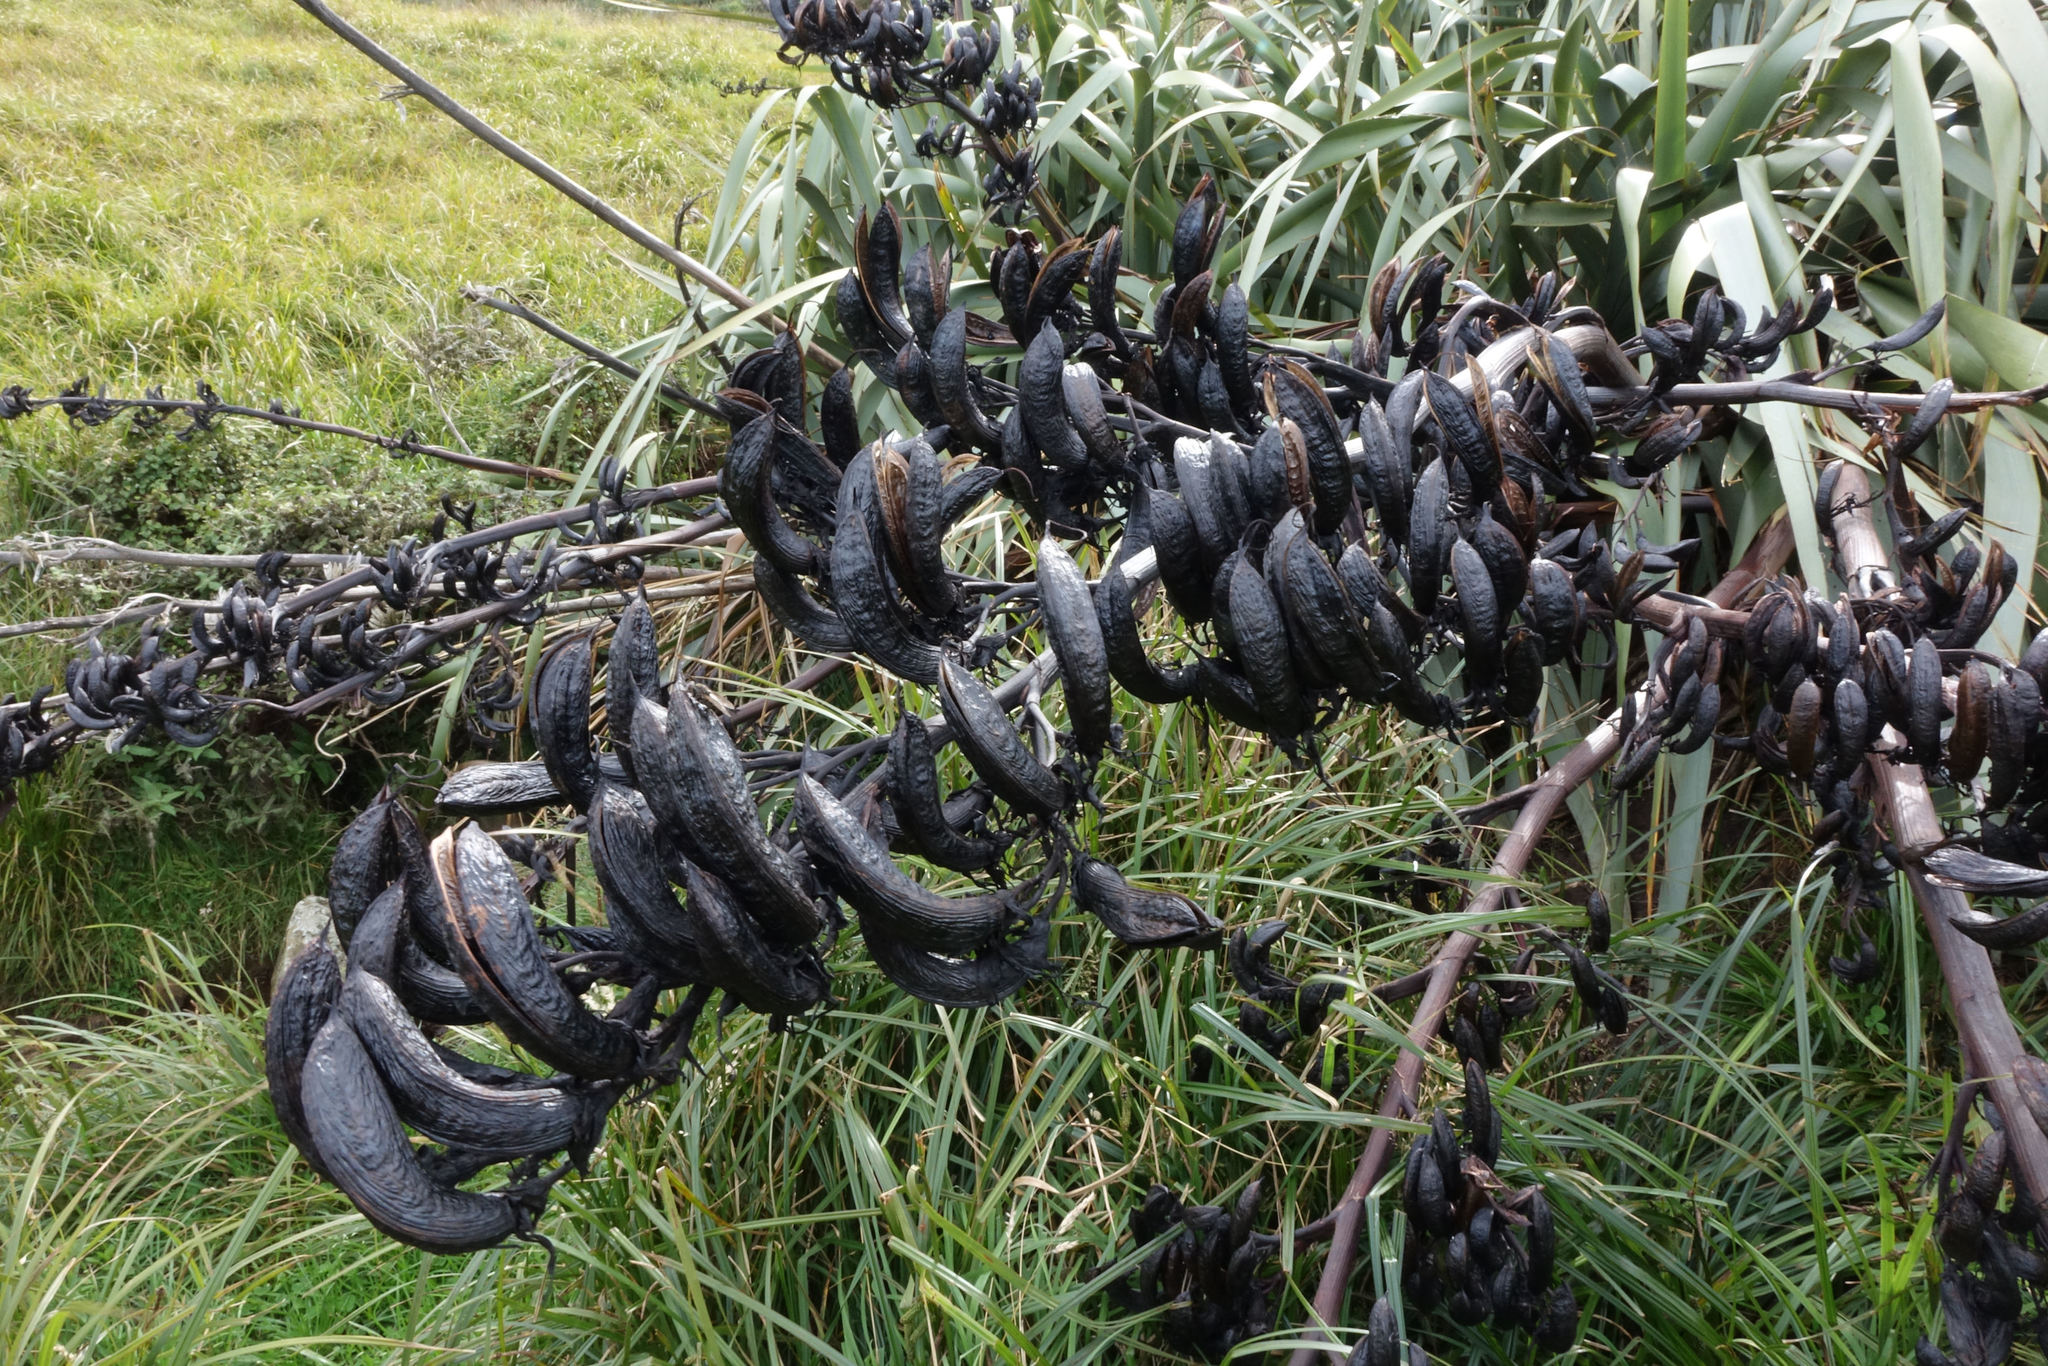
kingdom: Plantae
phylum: Tracheophyta
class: Liliopsida
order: Asparagales
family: Asphodelaceae
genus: Phormium
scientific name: Phormium tenax
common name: New zealand flax
